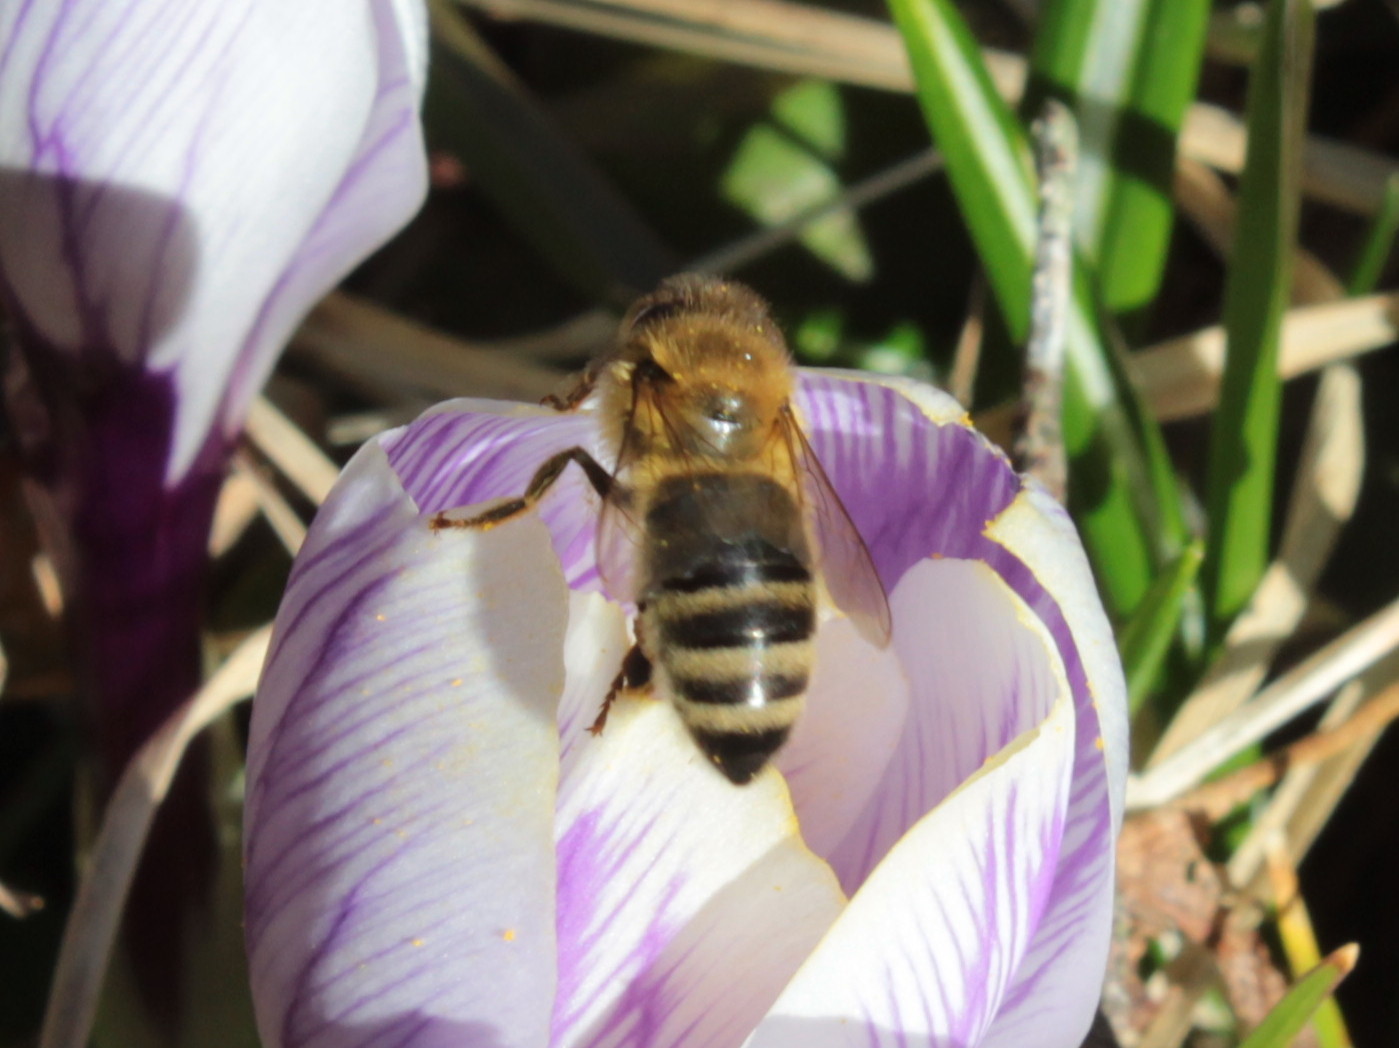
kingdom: Animalia
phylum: Arthropoda
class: Insecta
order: Hymenoptera
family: Apidae
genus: Apis
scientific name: Apis mellifera
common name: Honey bee
